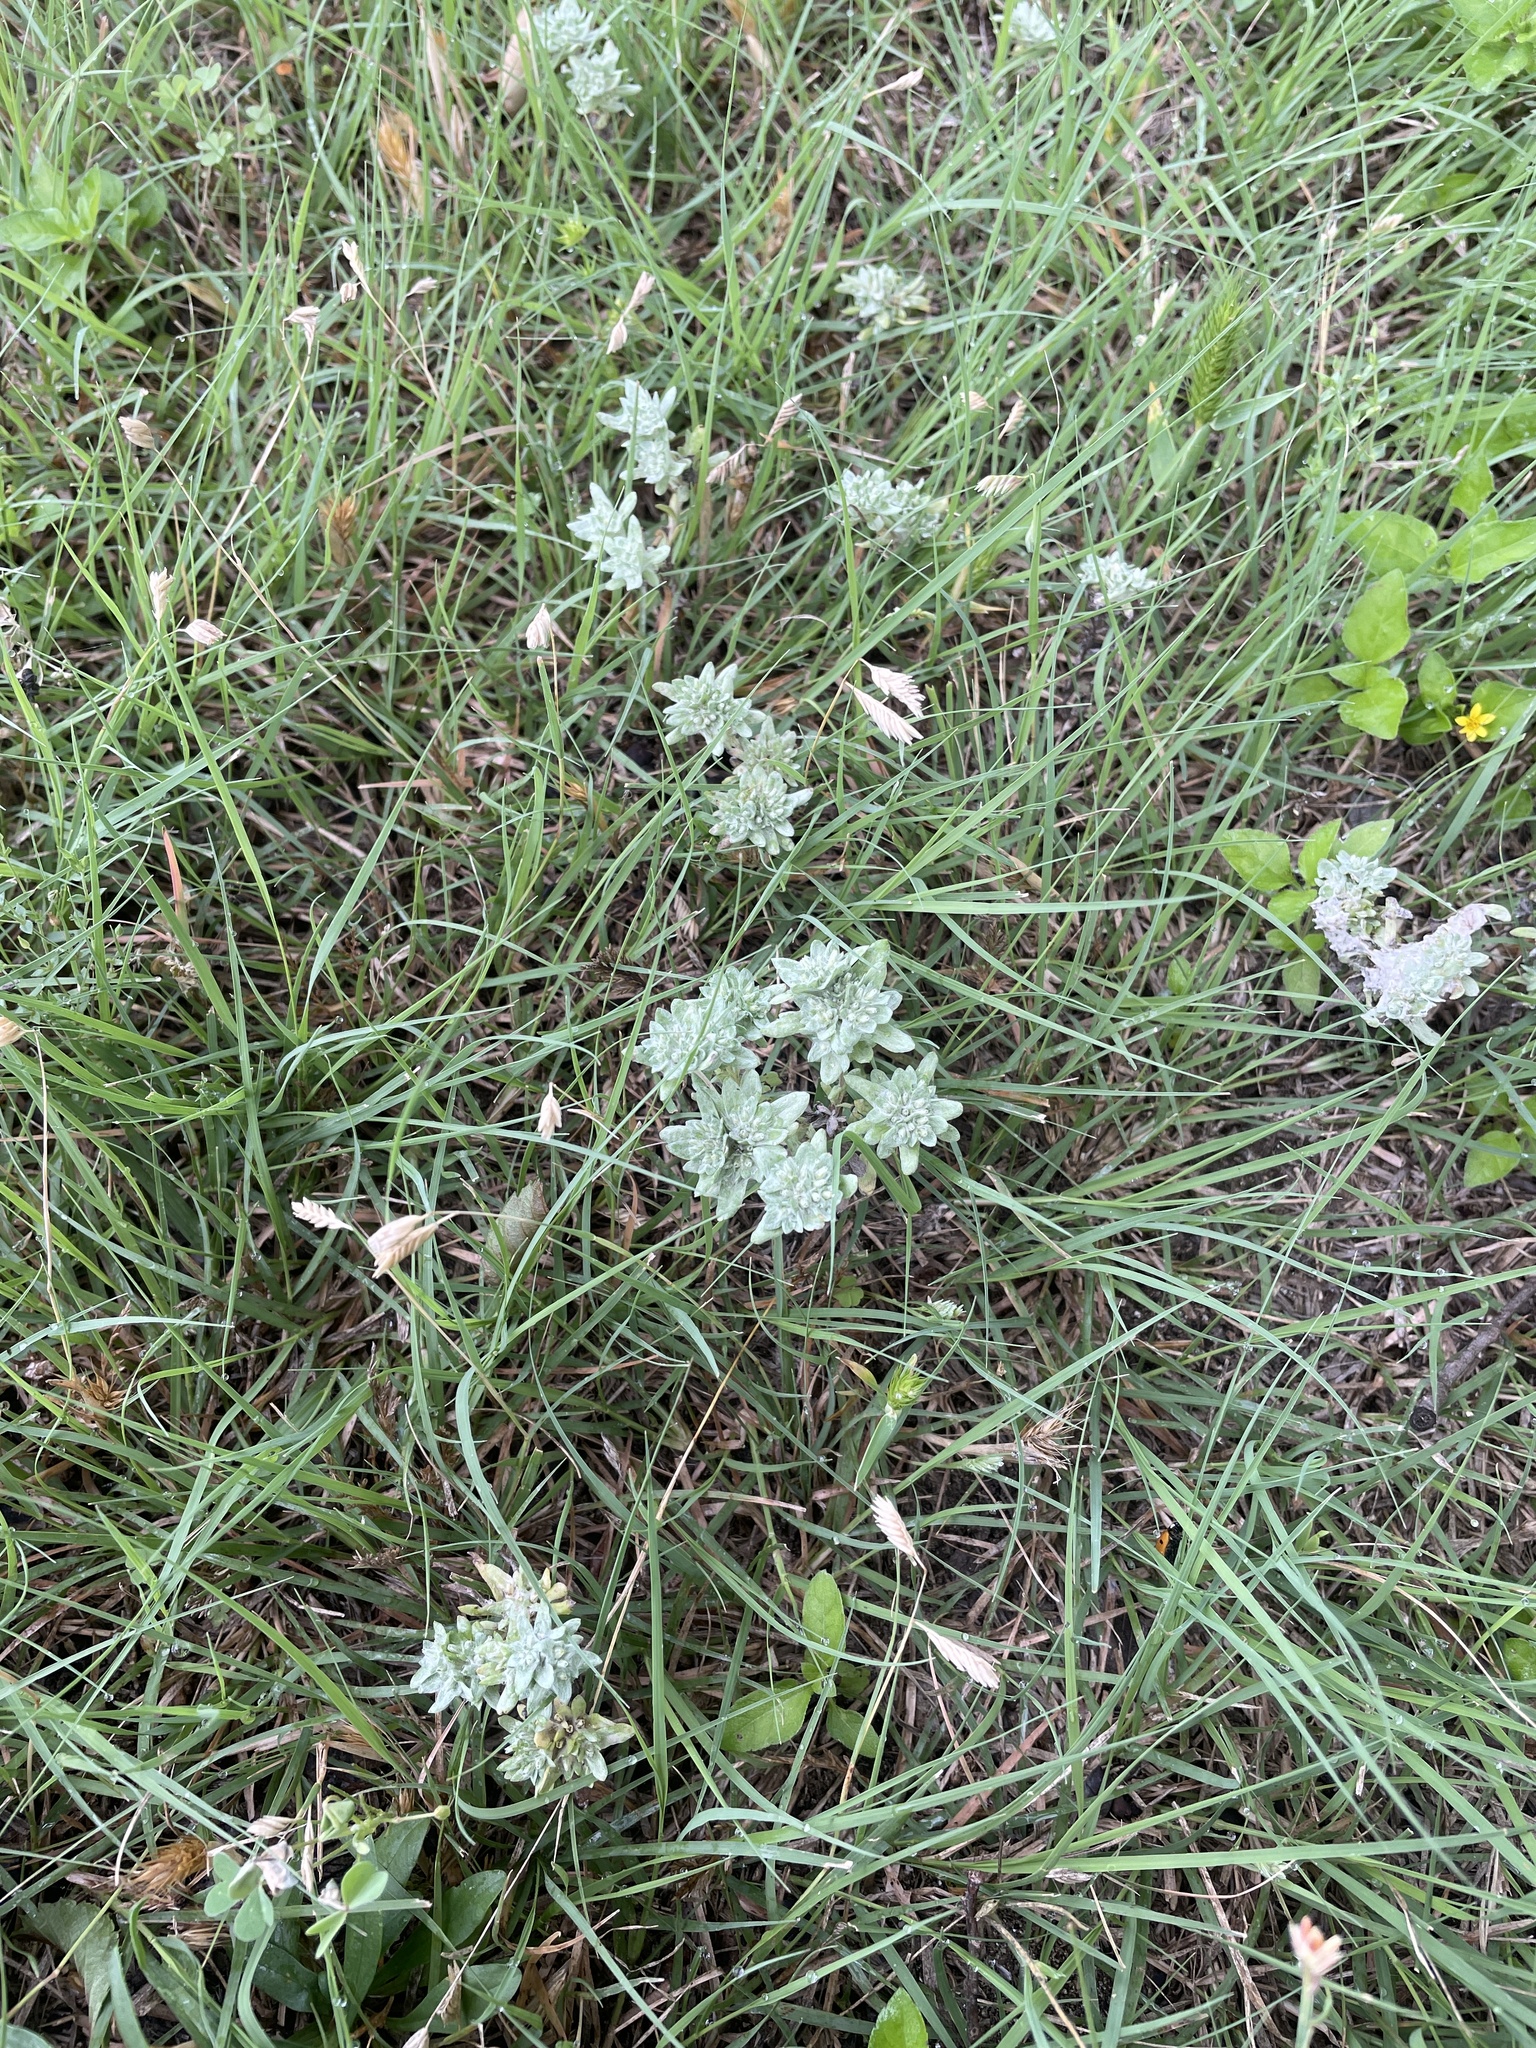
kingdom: Plantae
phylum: Tracheophyta
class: Magnoliopsida
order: Asterales
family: Asteraceae
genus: Diaperia
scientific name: Diaperia prolifera
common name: Big-head rabbit-tobacco
